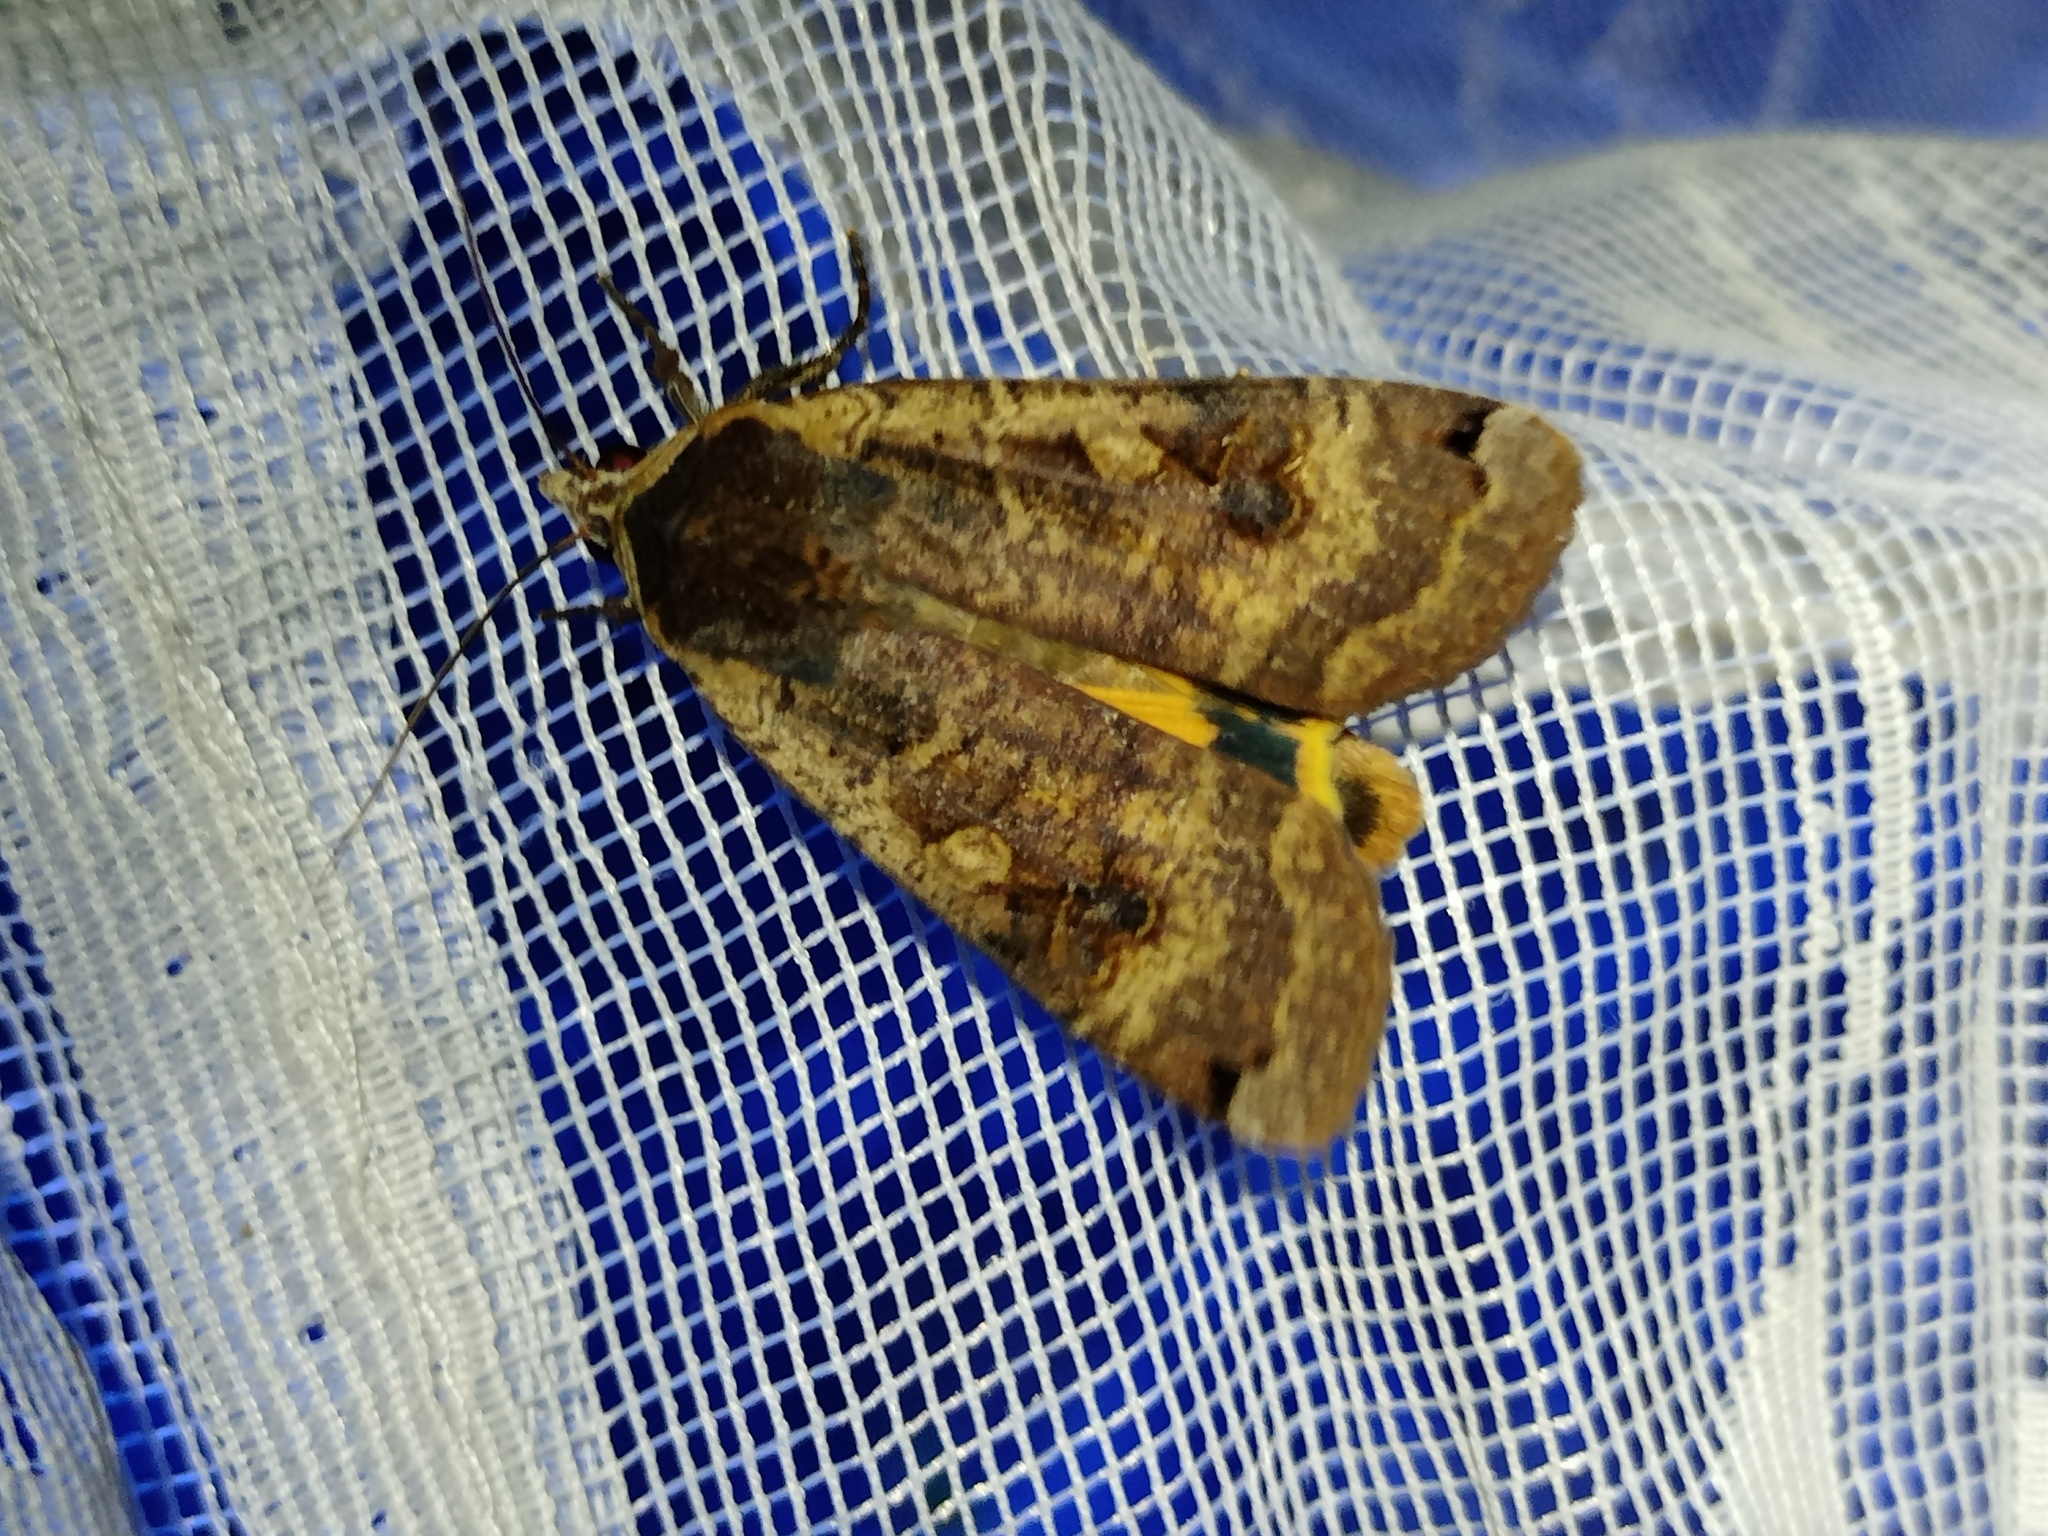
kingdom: Animalia
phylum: Arthropoda
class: Insecta
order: Lepidoptera
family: Noctuidae
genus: Noctua
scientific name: Noctua pronuba
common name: Large yellow underwing
